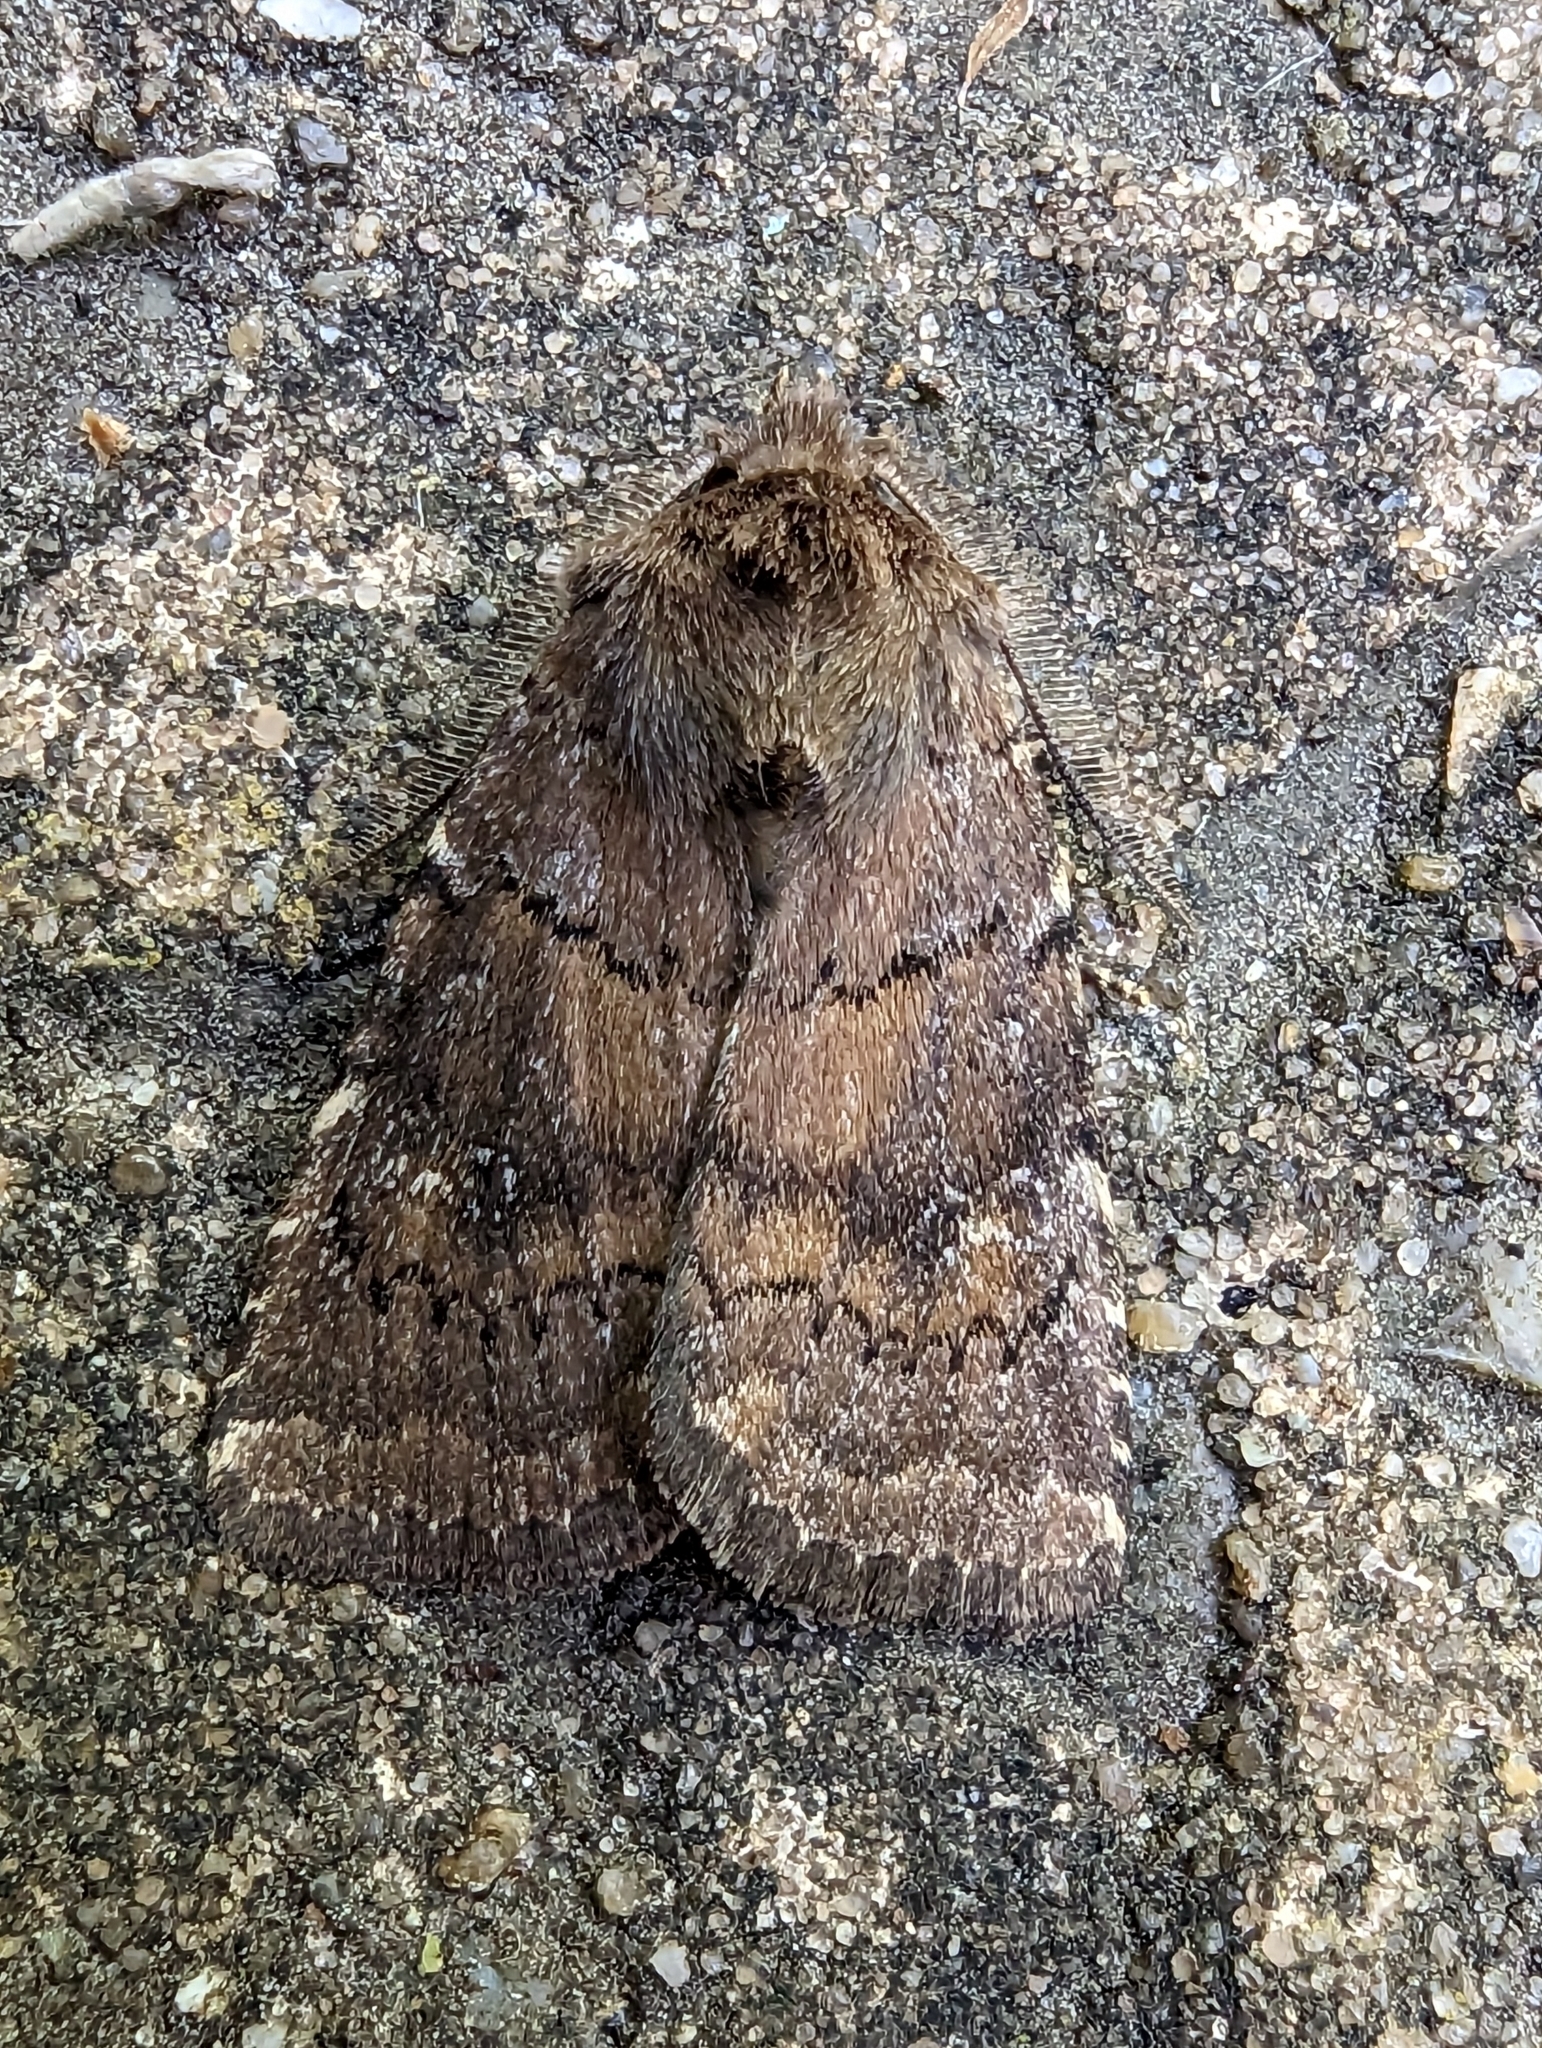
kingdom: Animalia
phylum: Arthropoda
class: Insecta
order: Lepidoptera
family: Noctuidae
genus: Charanyca
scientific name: Charanyca ferruginea
